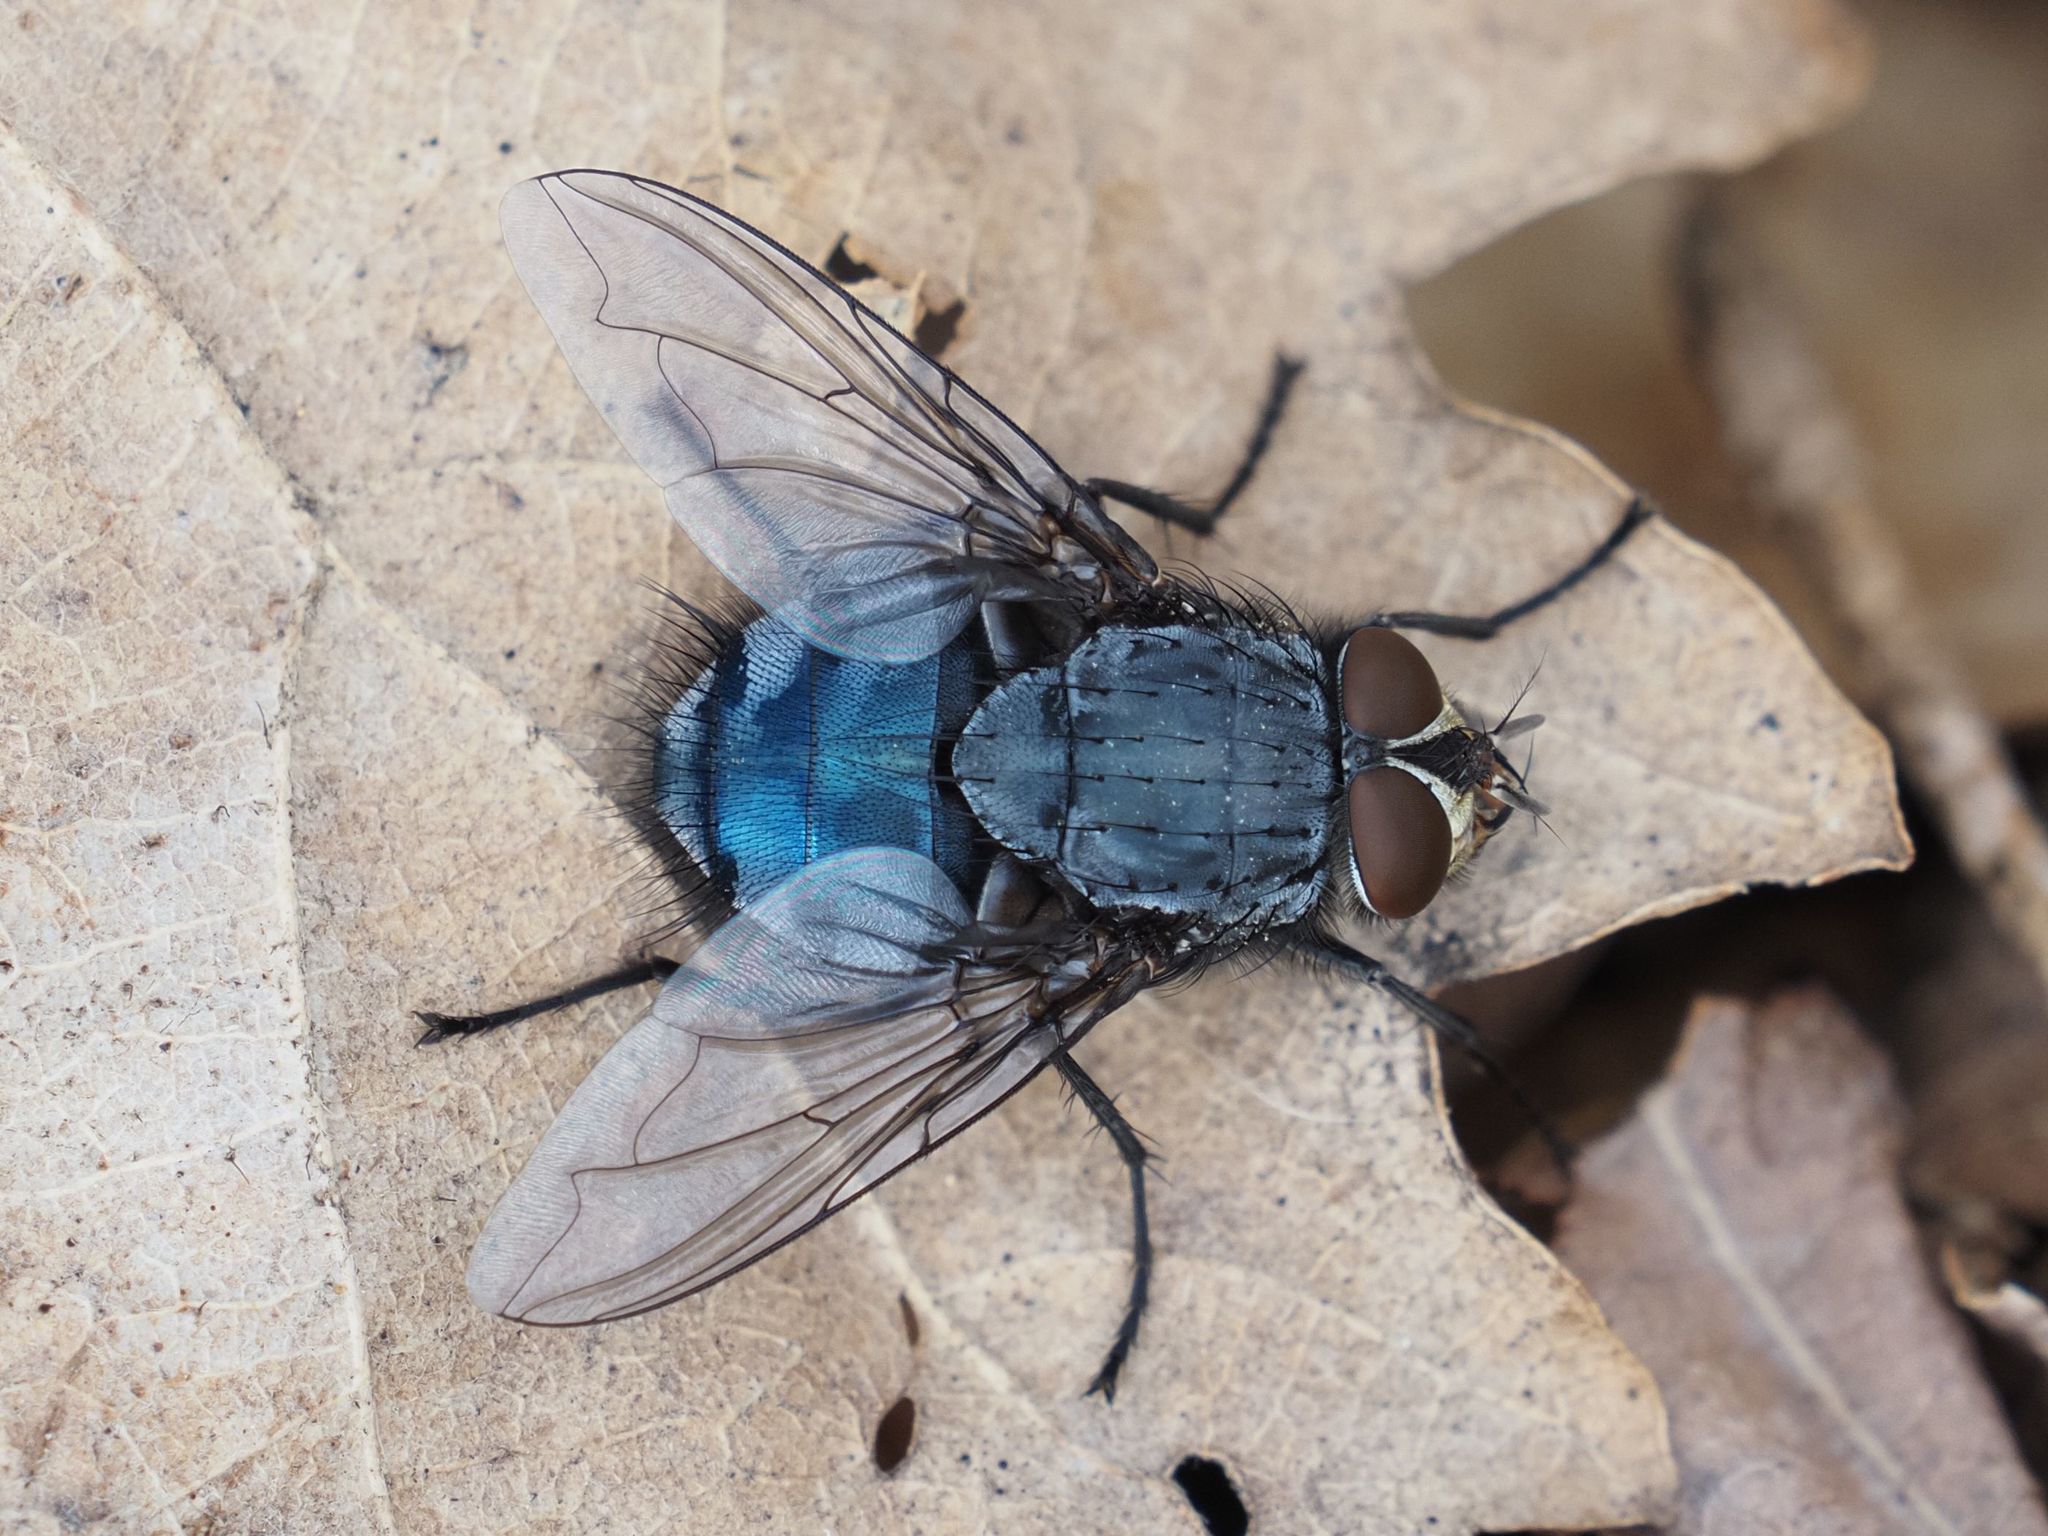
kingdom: Animalia
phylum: Arthropoda
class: Insecta
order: Diptera
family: Calliphoridae
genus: Calliphora
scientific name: Calliphora vicina
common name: Common blow flie
